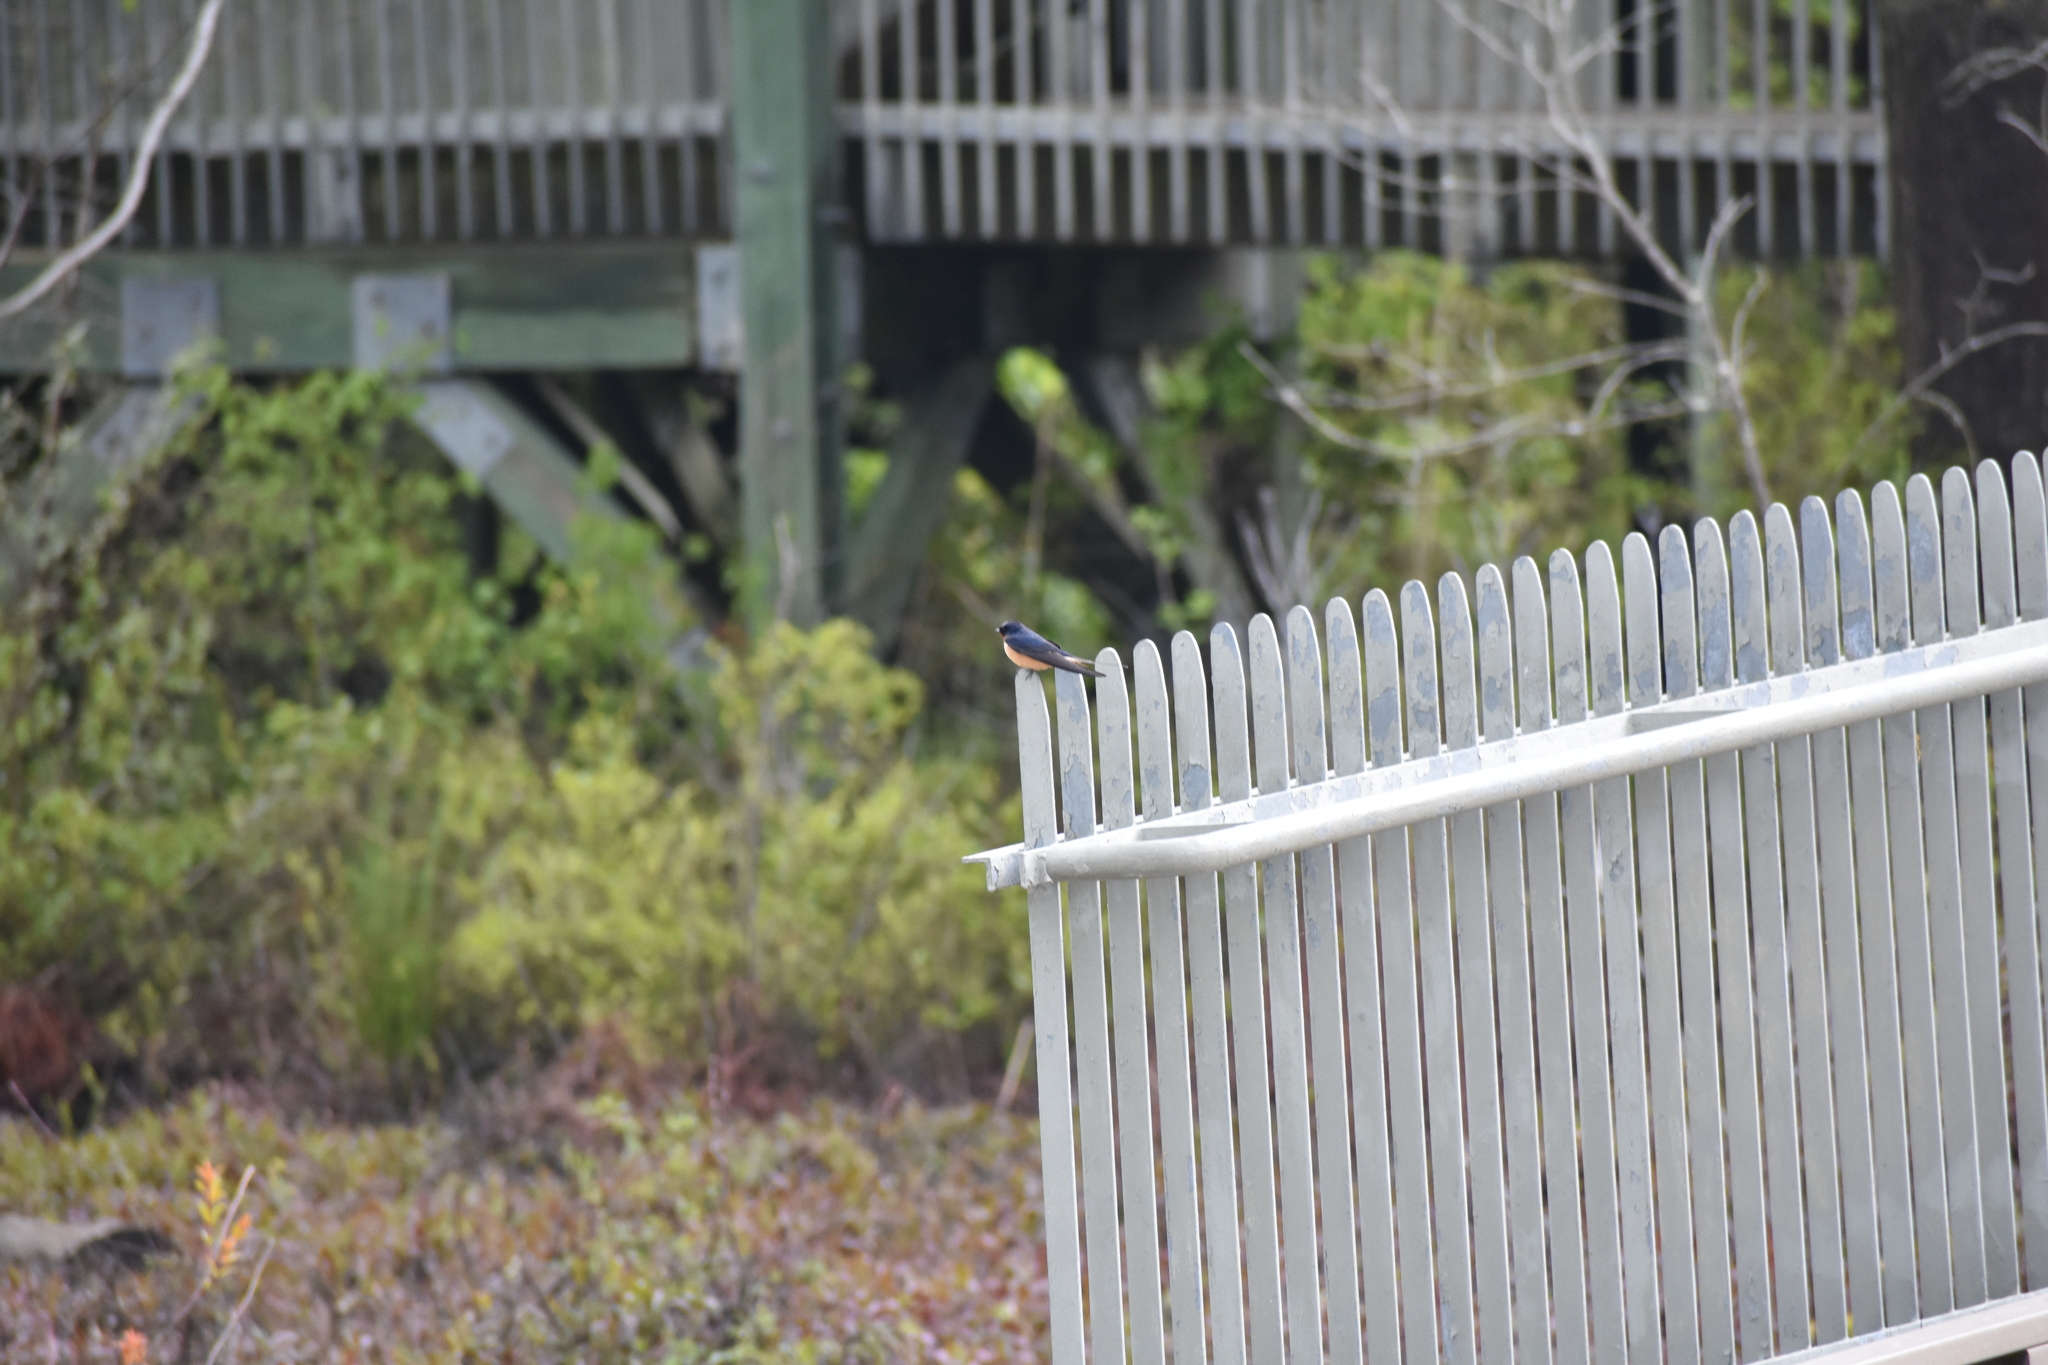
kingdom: Animalia
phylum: Chordata
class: Aves
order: Passeriformes
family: Hirundinidae
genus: Hirundo
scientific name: Hirundo rustica
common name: Barn swallow
